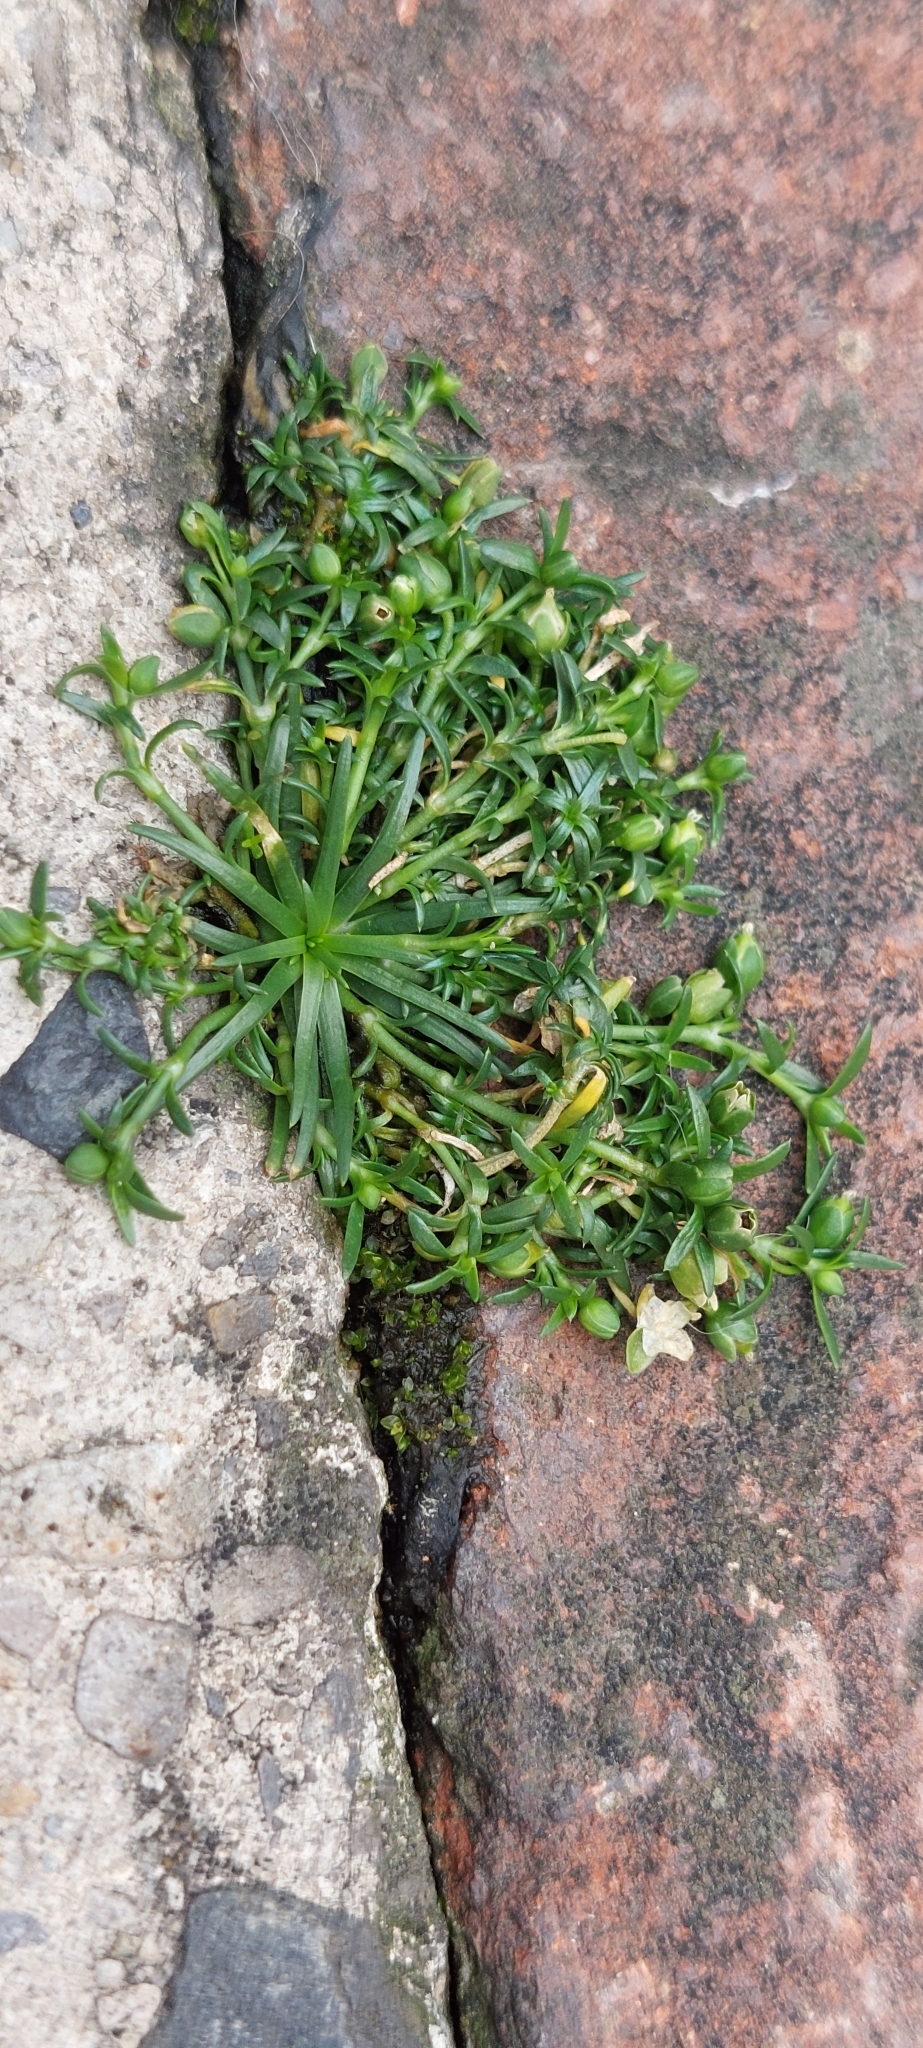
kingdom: Plantae
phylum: Tracheophyta
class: Magnoliopsida
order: Caryophyllales
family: Caryophyllaceae
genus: Sagina
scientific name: Sagina procumbens
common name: Procumbent pearlwort
